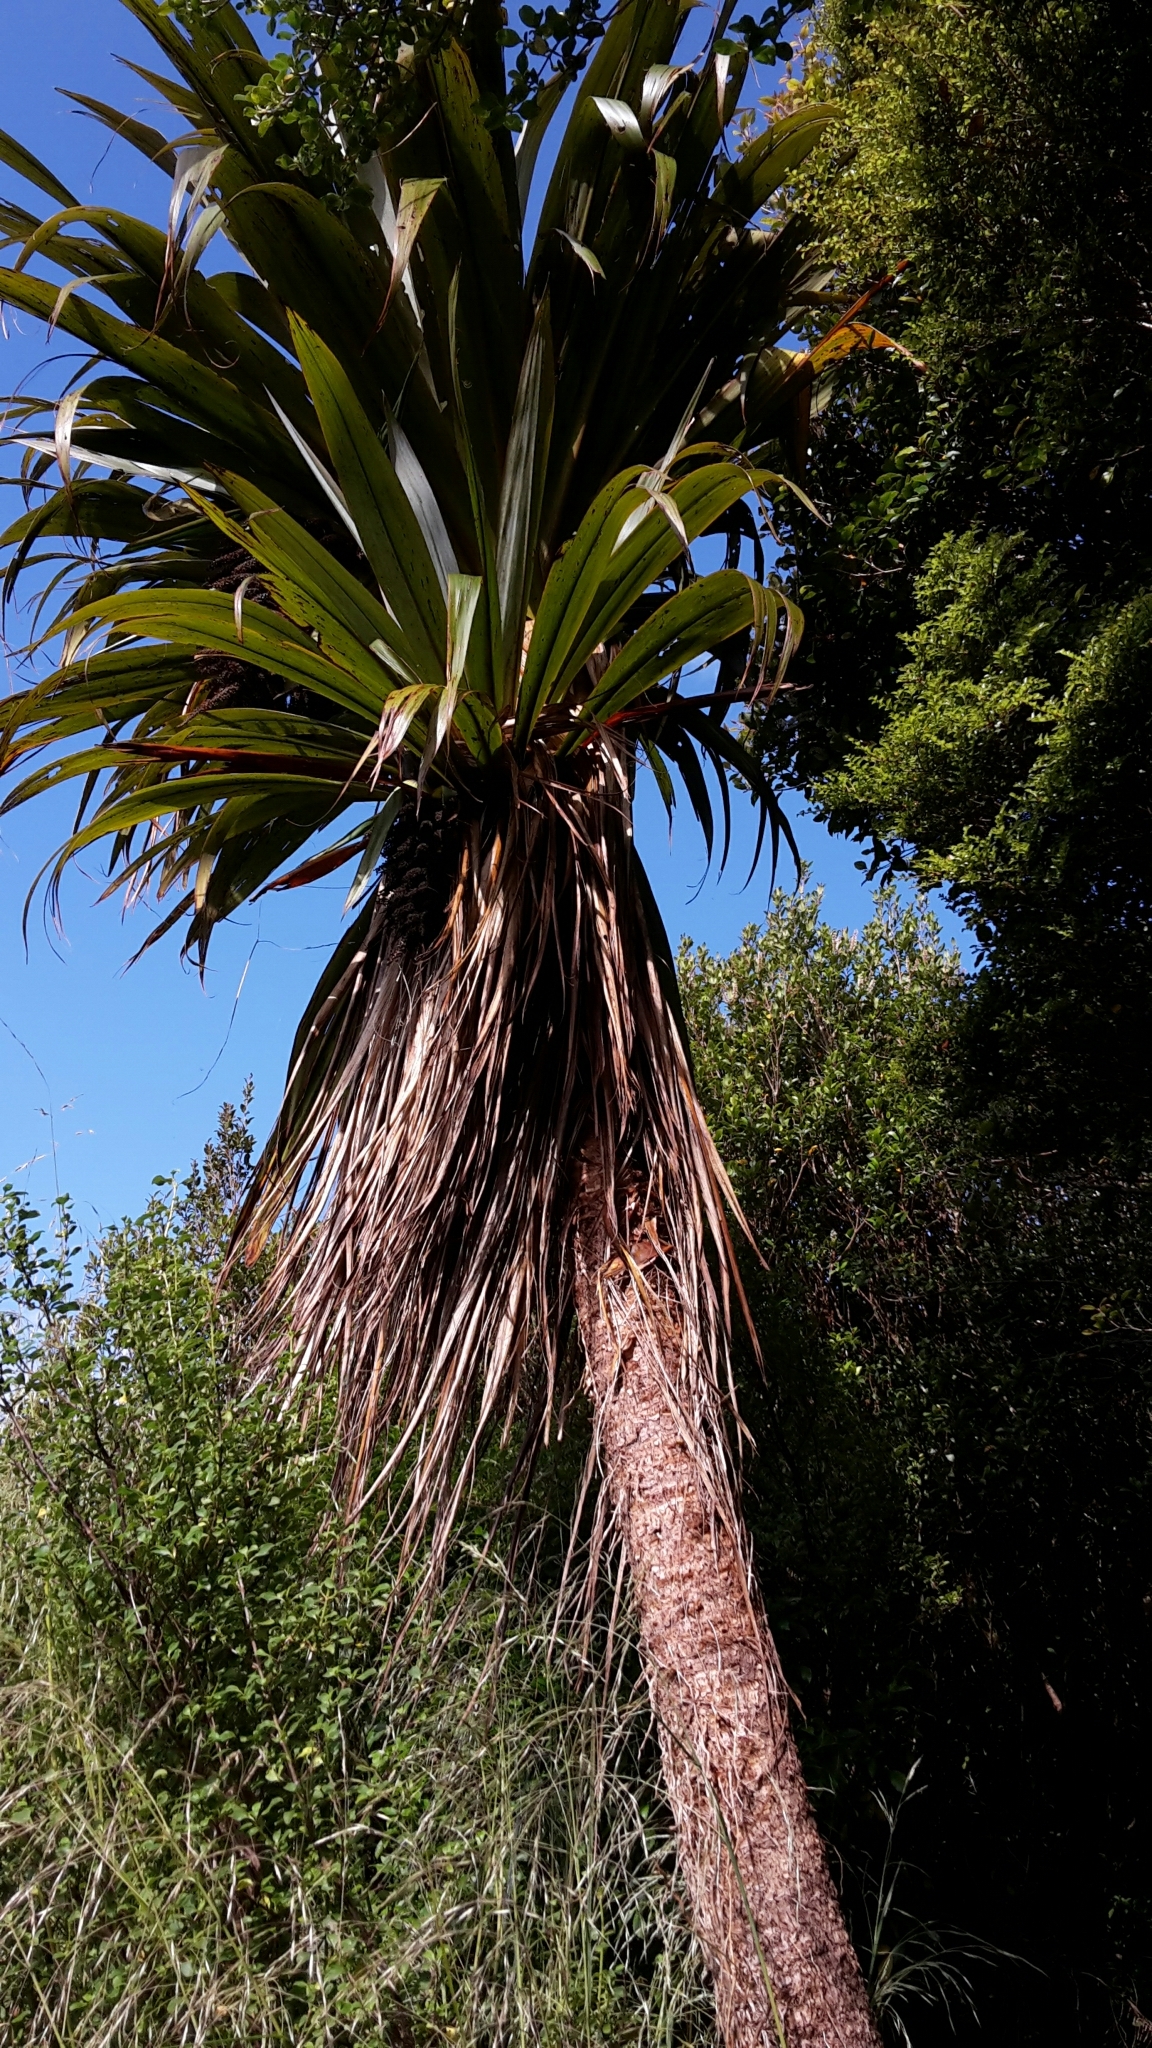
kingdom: Plantae
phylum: Tracheophyta
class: Liliopsida
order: Asparagales
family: Asparagaceae
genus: Cordyline
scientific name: Cordyline indivisa
